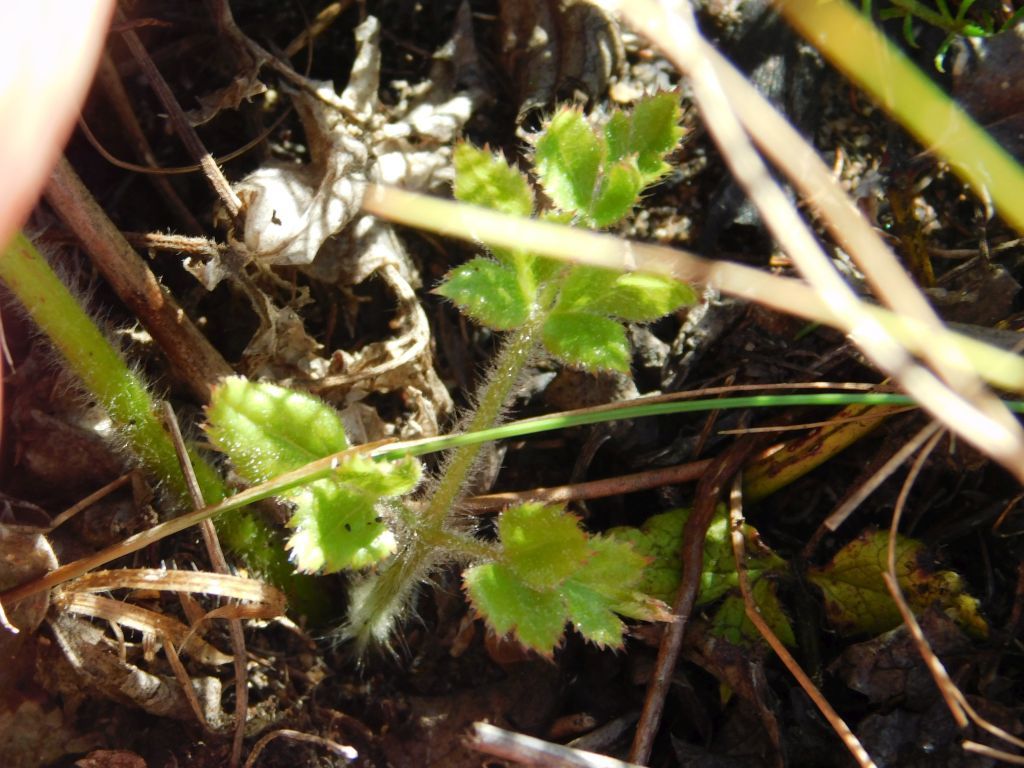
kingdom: Plantae
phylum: Tracheophyta
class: Magnoliopsida
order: Ranunculales
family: Ranunculaceae
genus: Knowltonia
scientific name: Knowltonia anemonoides
